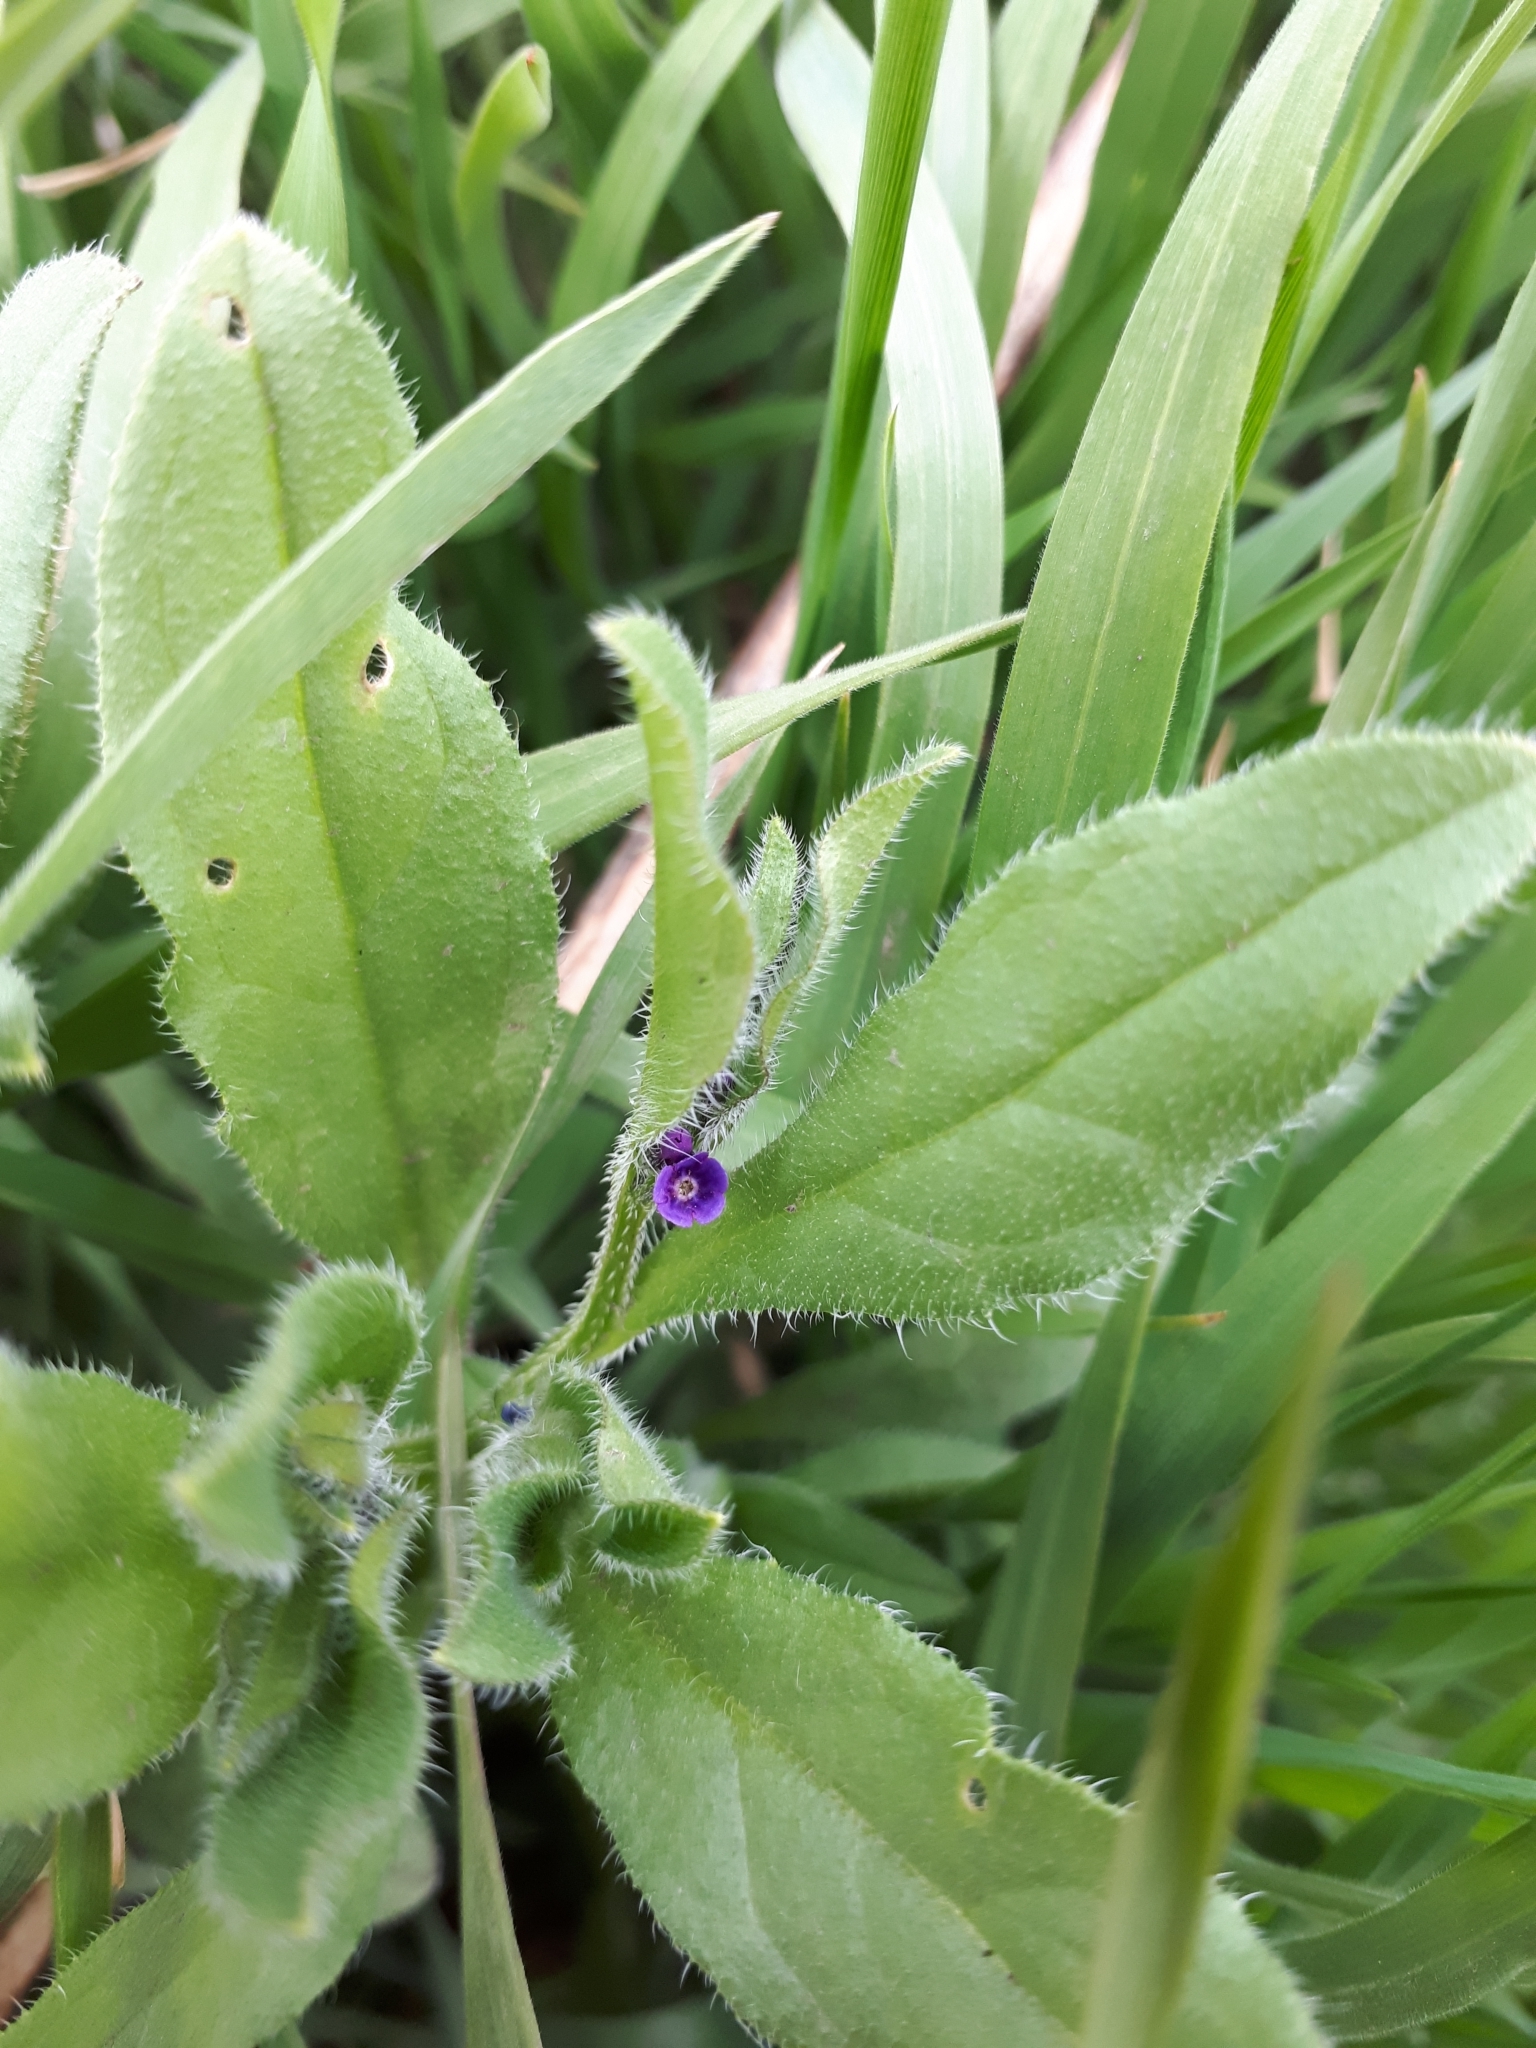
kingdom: Plantae
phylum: Tracheophyta
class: Magnoliopsida
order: Boraginales
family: Boraginaceae
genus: Asperugo
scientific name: Asperugo procumbens
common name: Madwort
